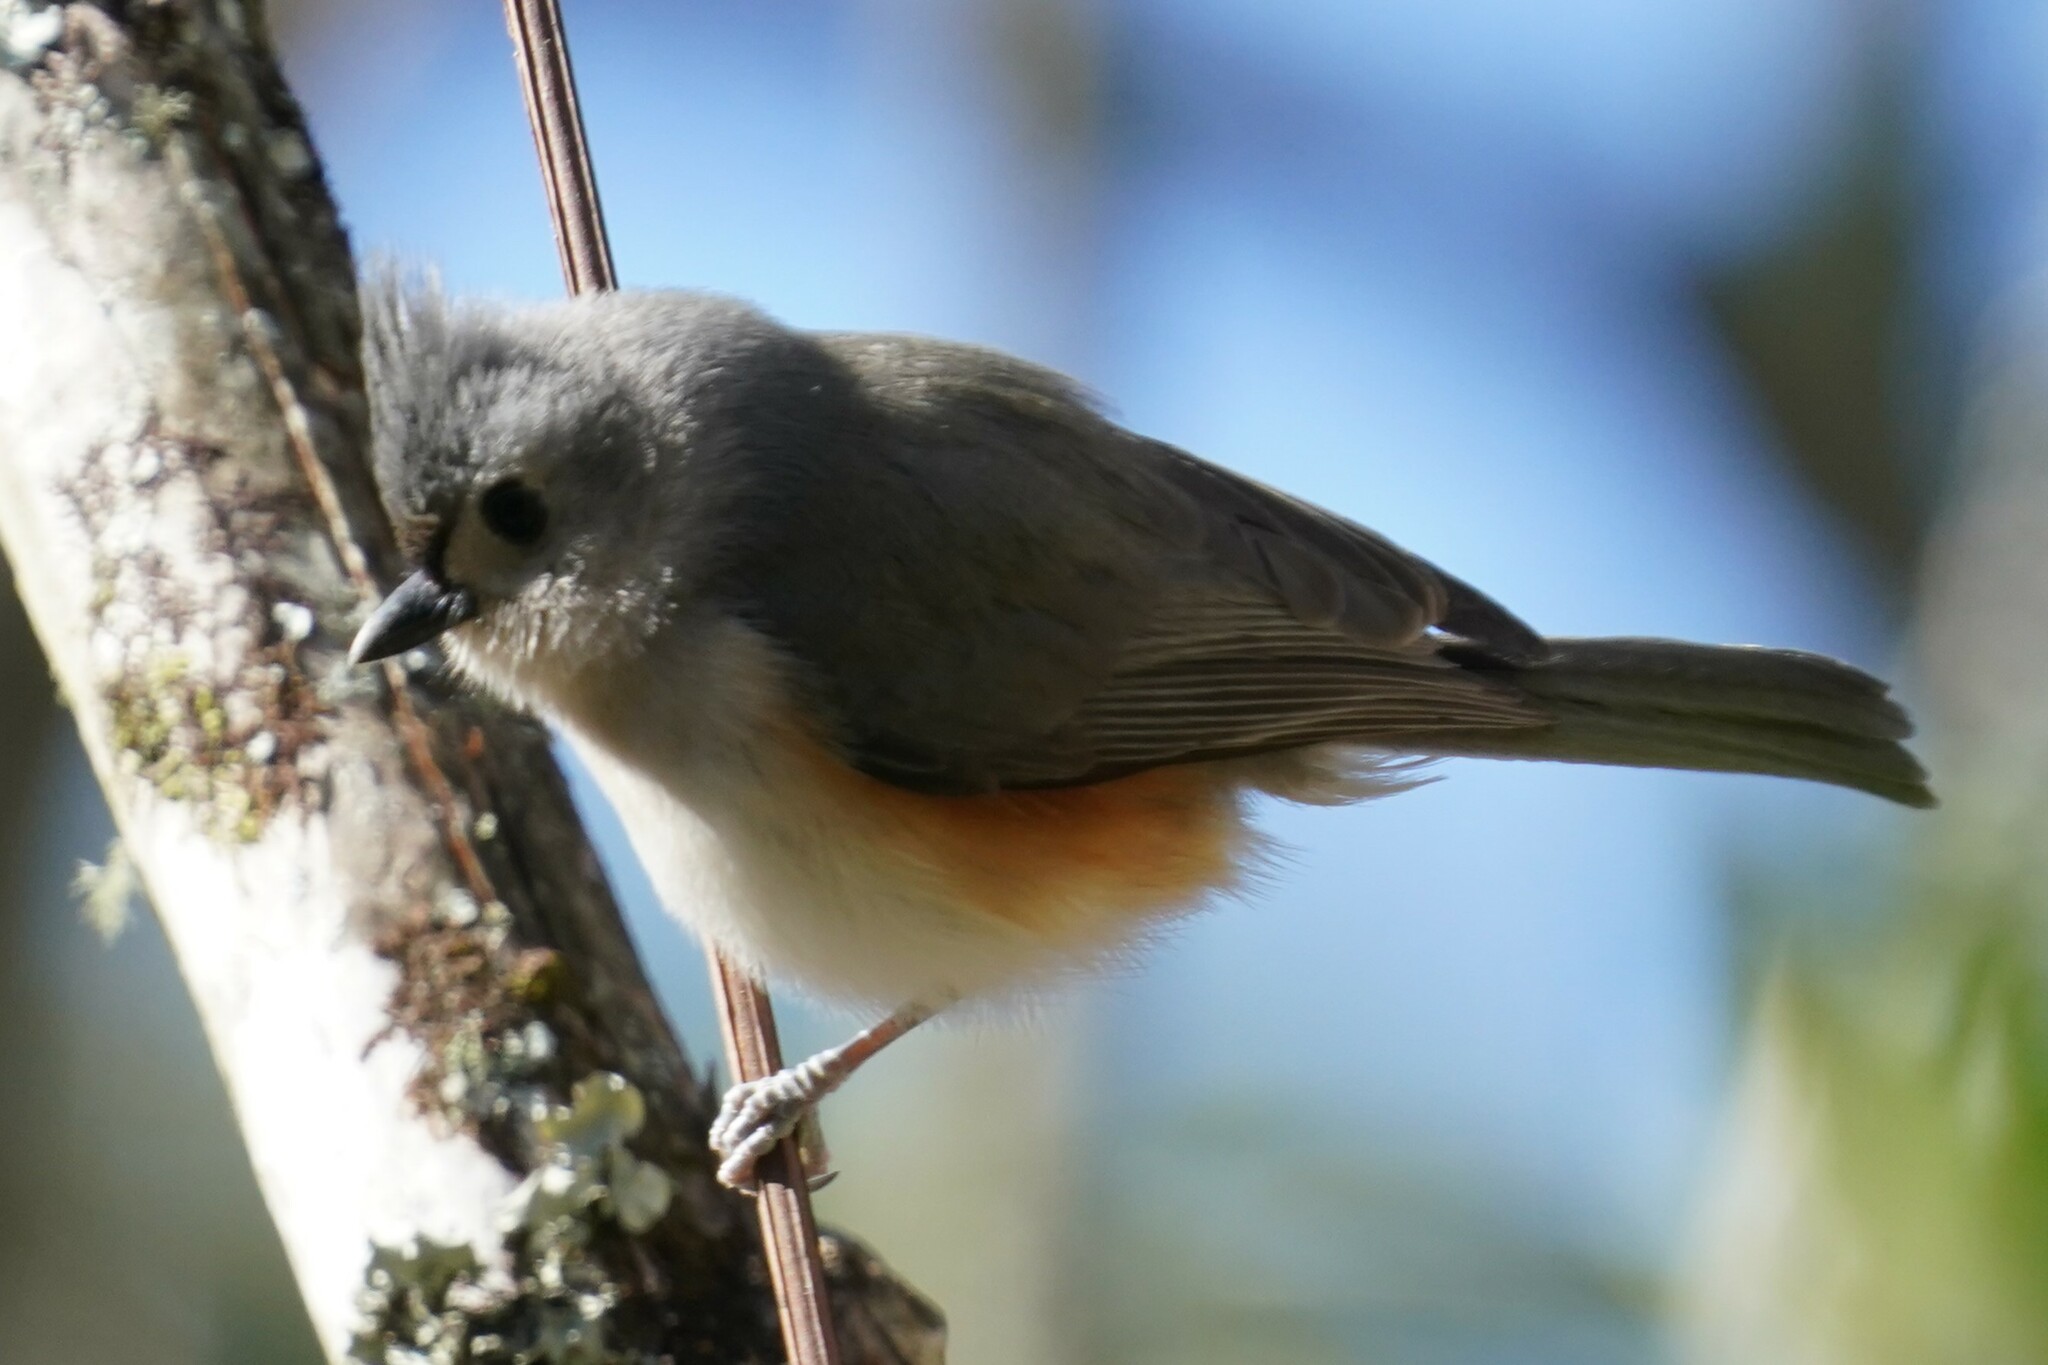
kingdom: Animalia
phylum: Chordata
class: Aves
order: Passeriformes
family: Paridae
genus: Baeolophus
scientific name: Baeolophus bicolor
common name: Tufted titmouse
